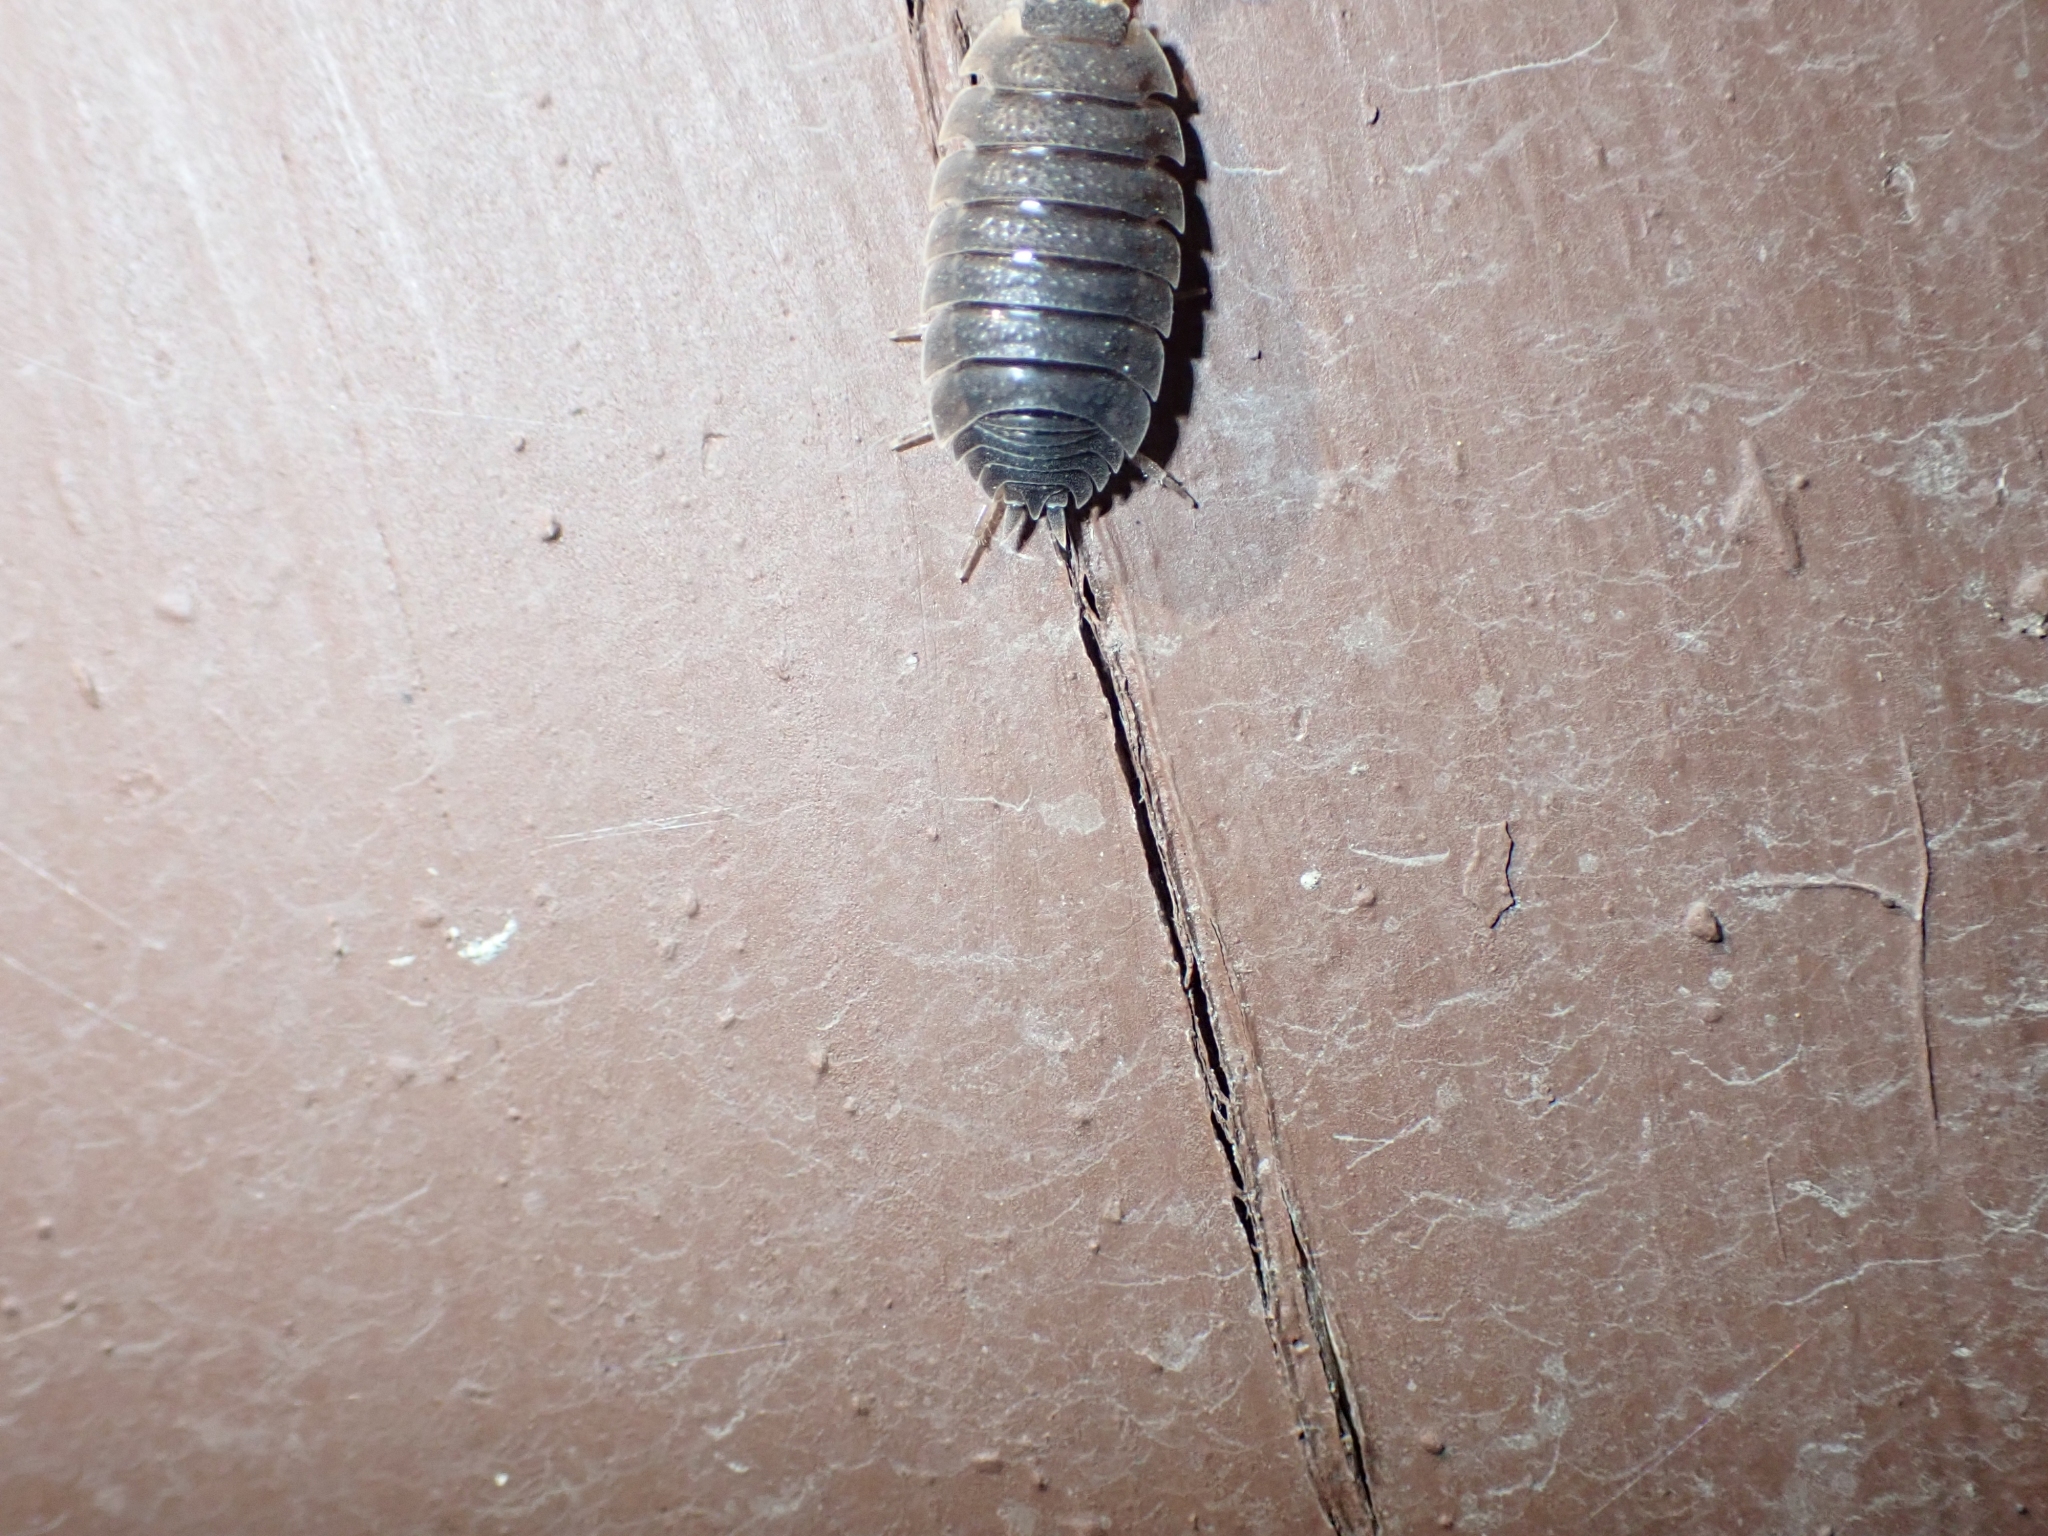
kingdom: Animalia
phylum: Arthropoda
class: Malacostraca
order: Isopoda
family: Porcellionidae
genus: Porcellio
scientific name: Porcellio scaber
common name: Common rough woodlouse
